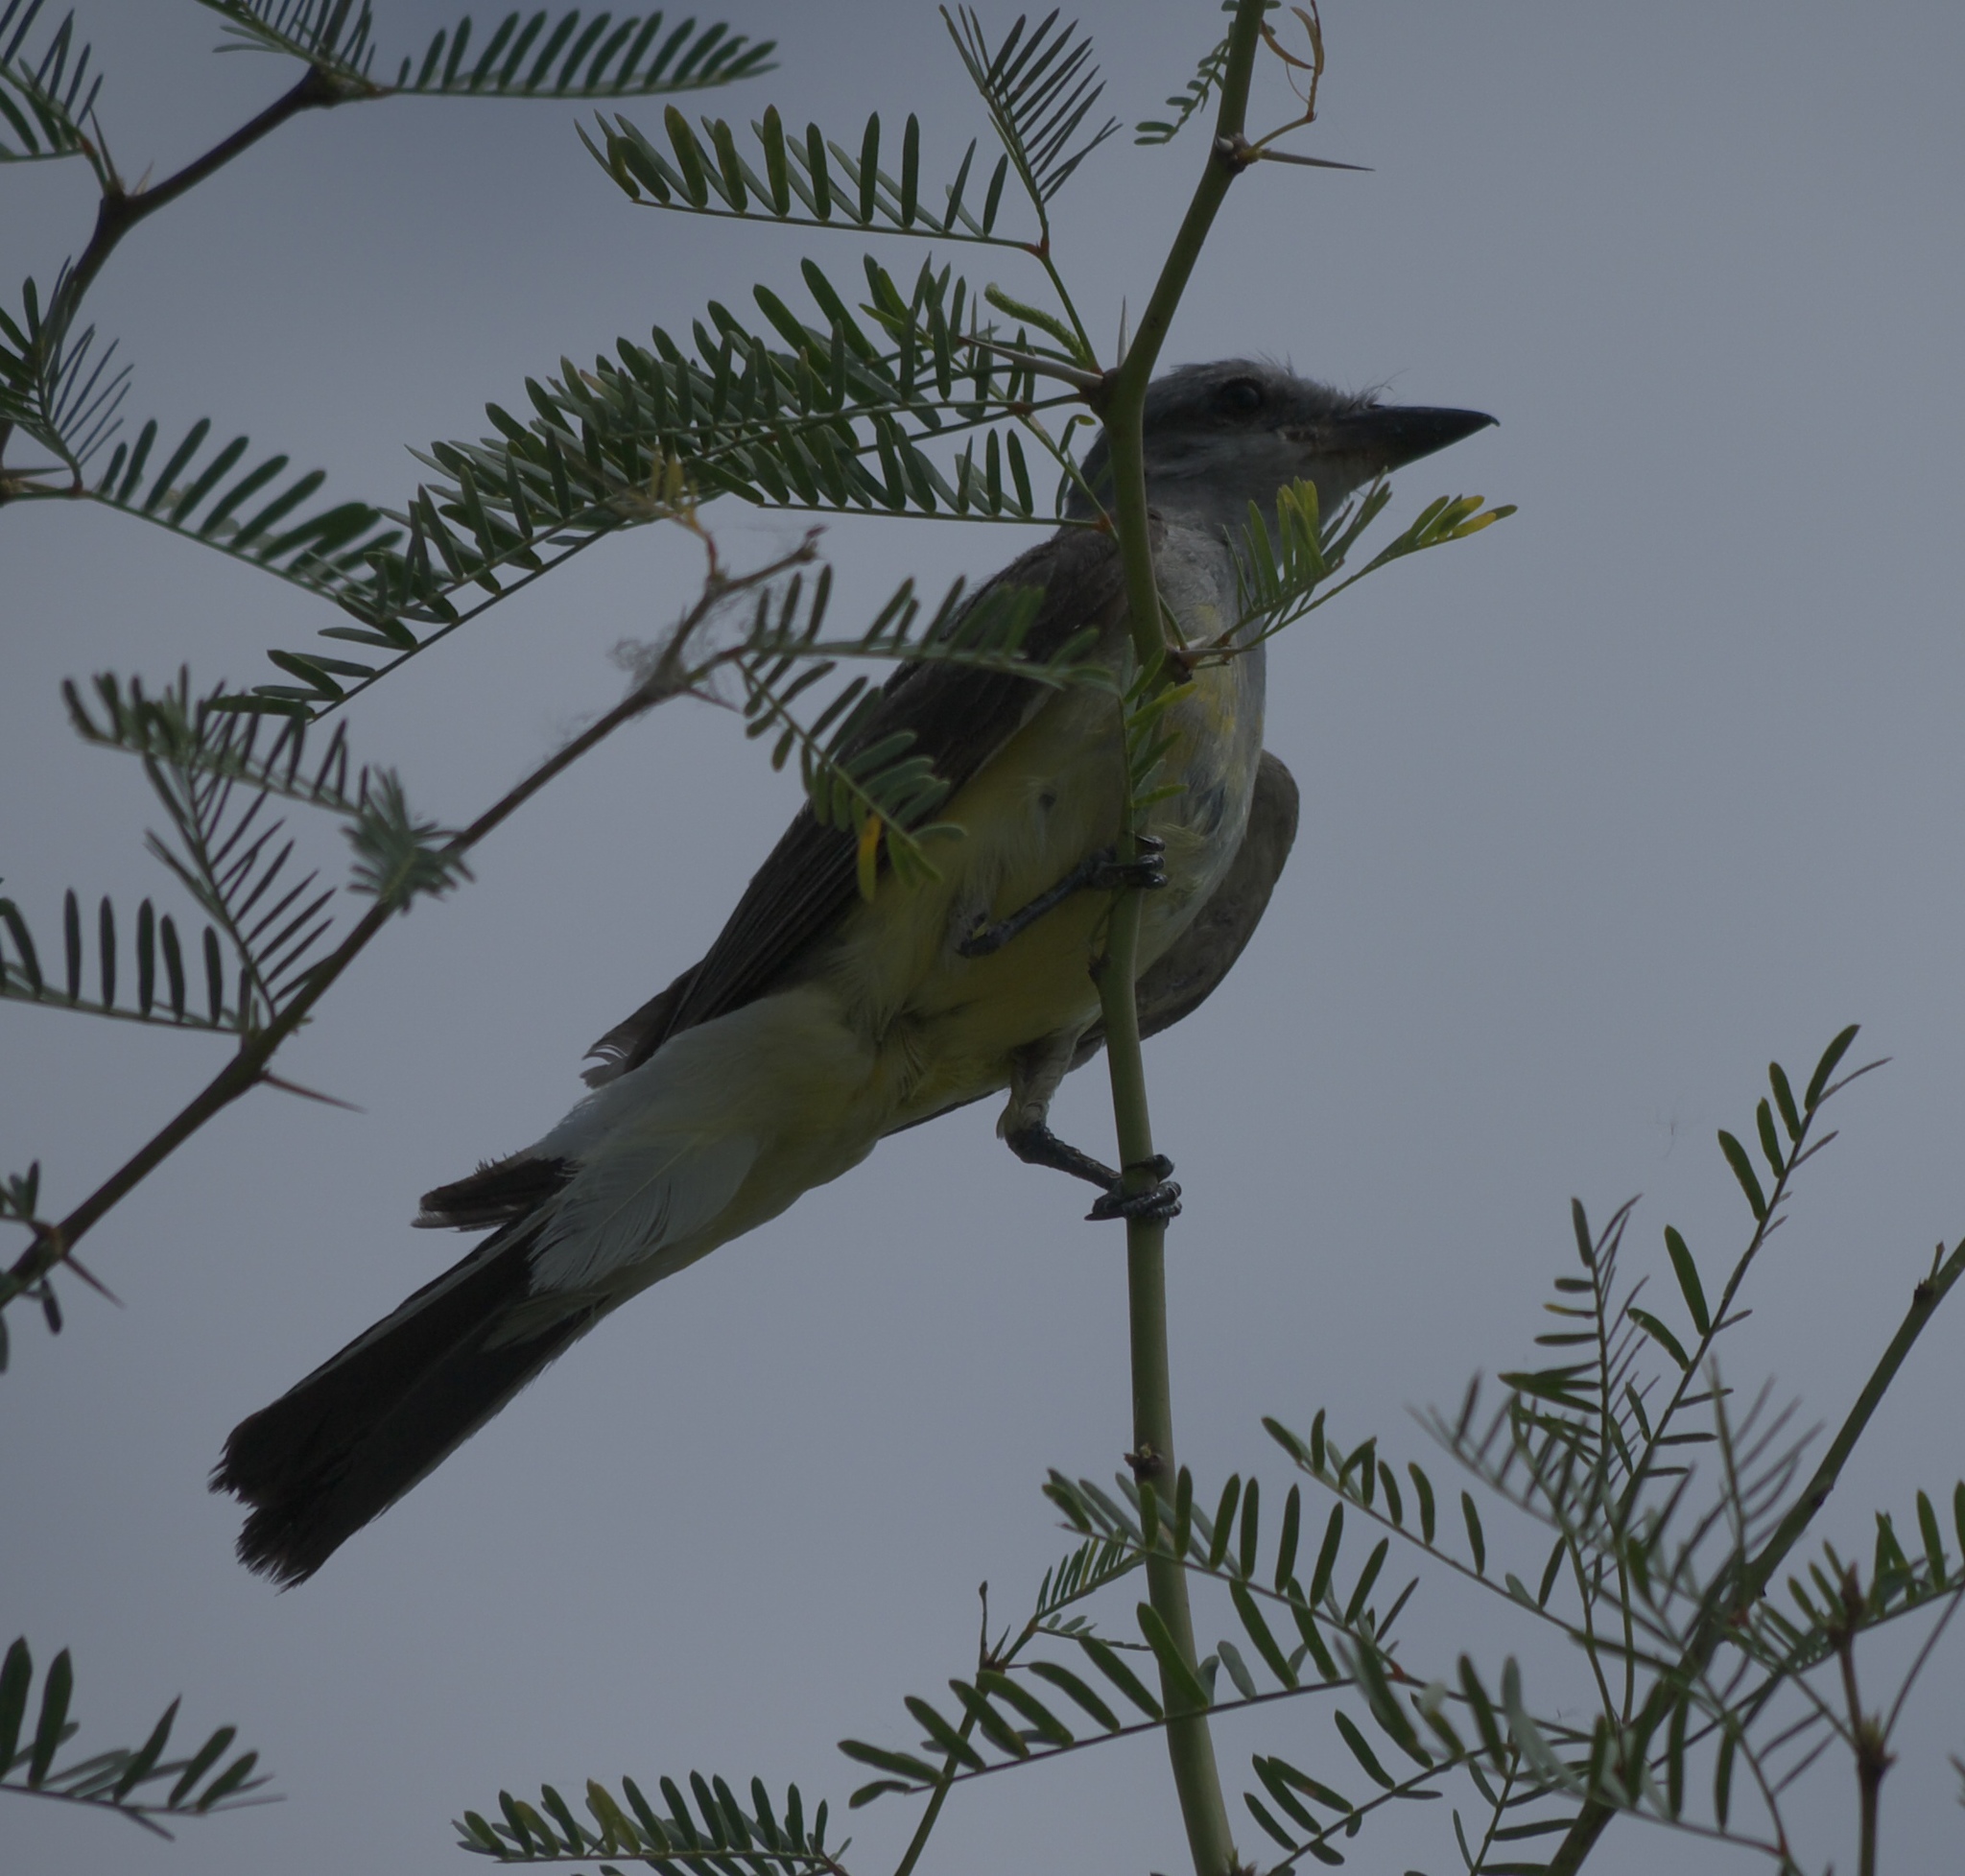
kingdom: Animalia
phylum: Chordata
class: Aves
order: Passeriformes
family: Tyrannidae
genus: Tyrannus
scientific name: Tyrannus verticalis
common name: Western kingbird
